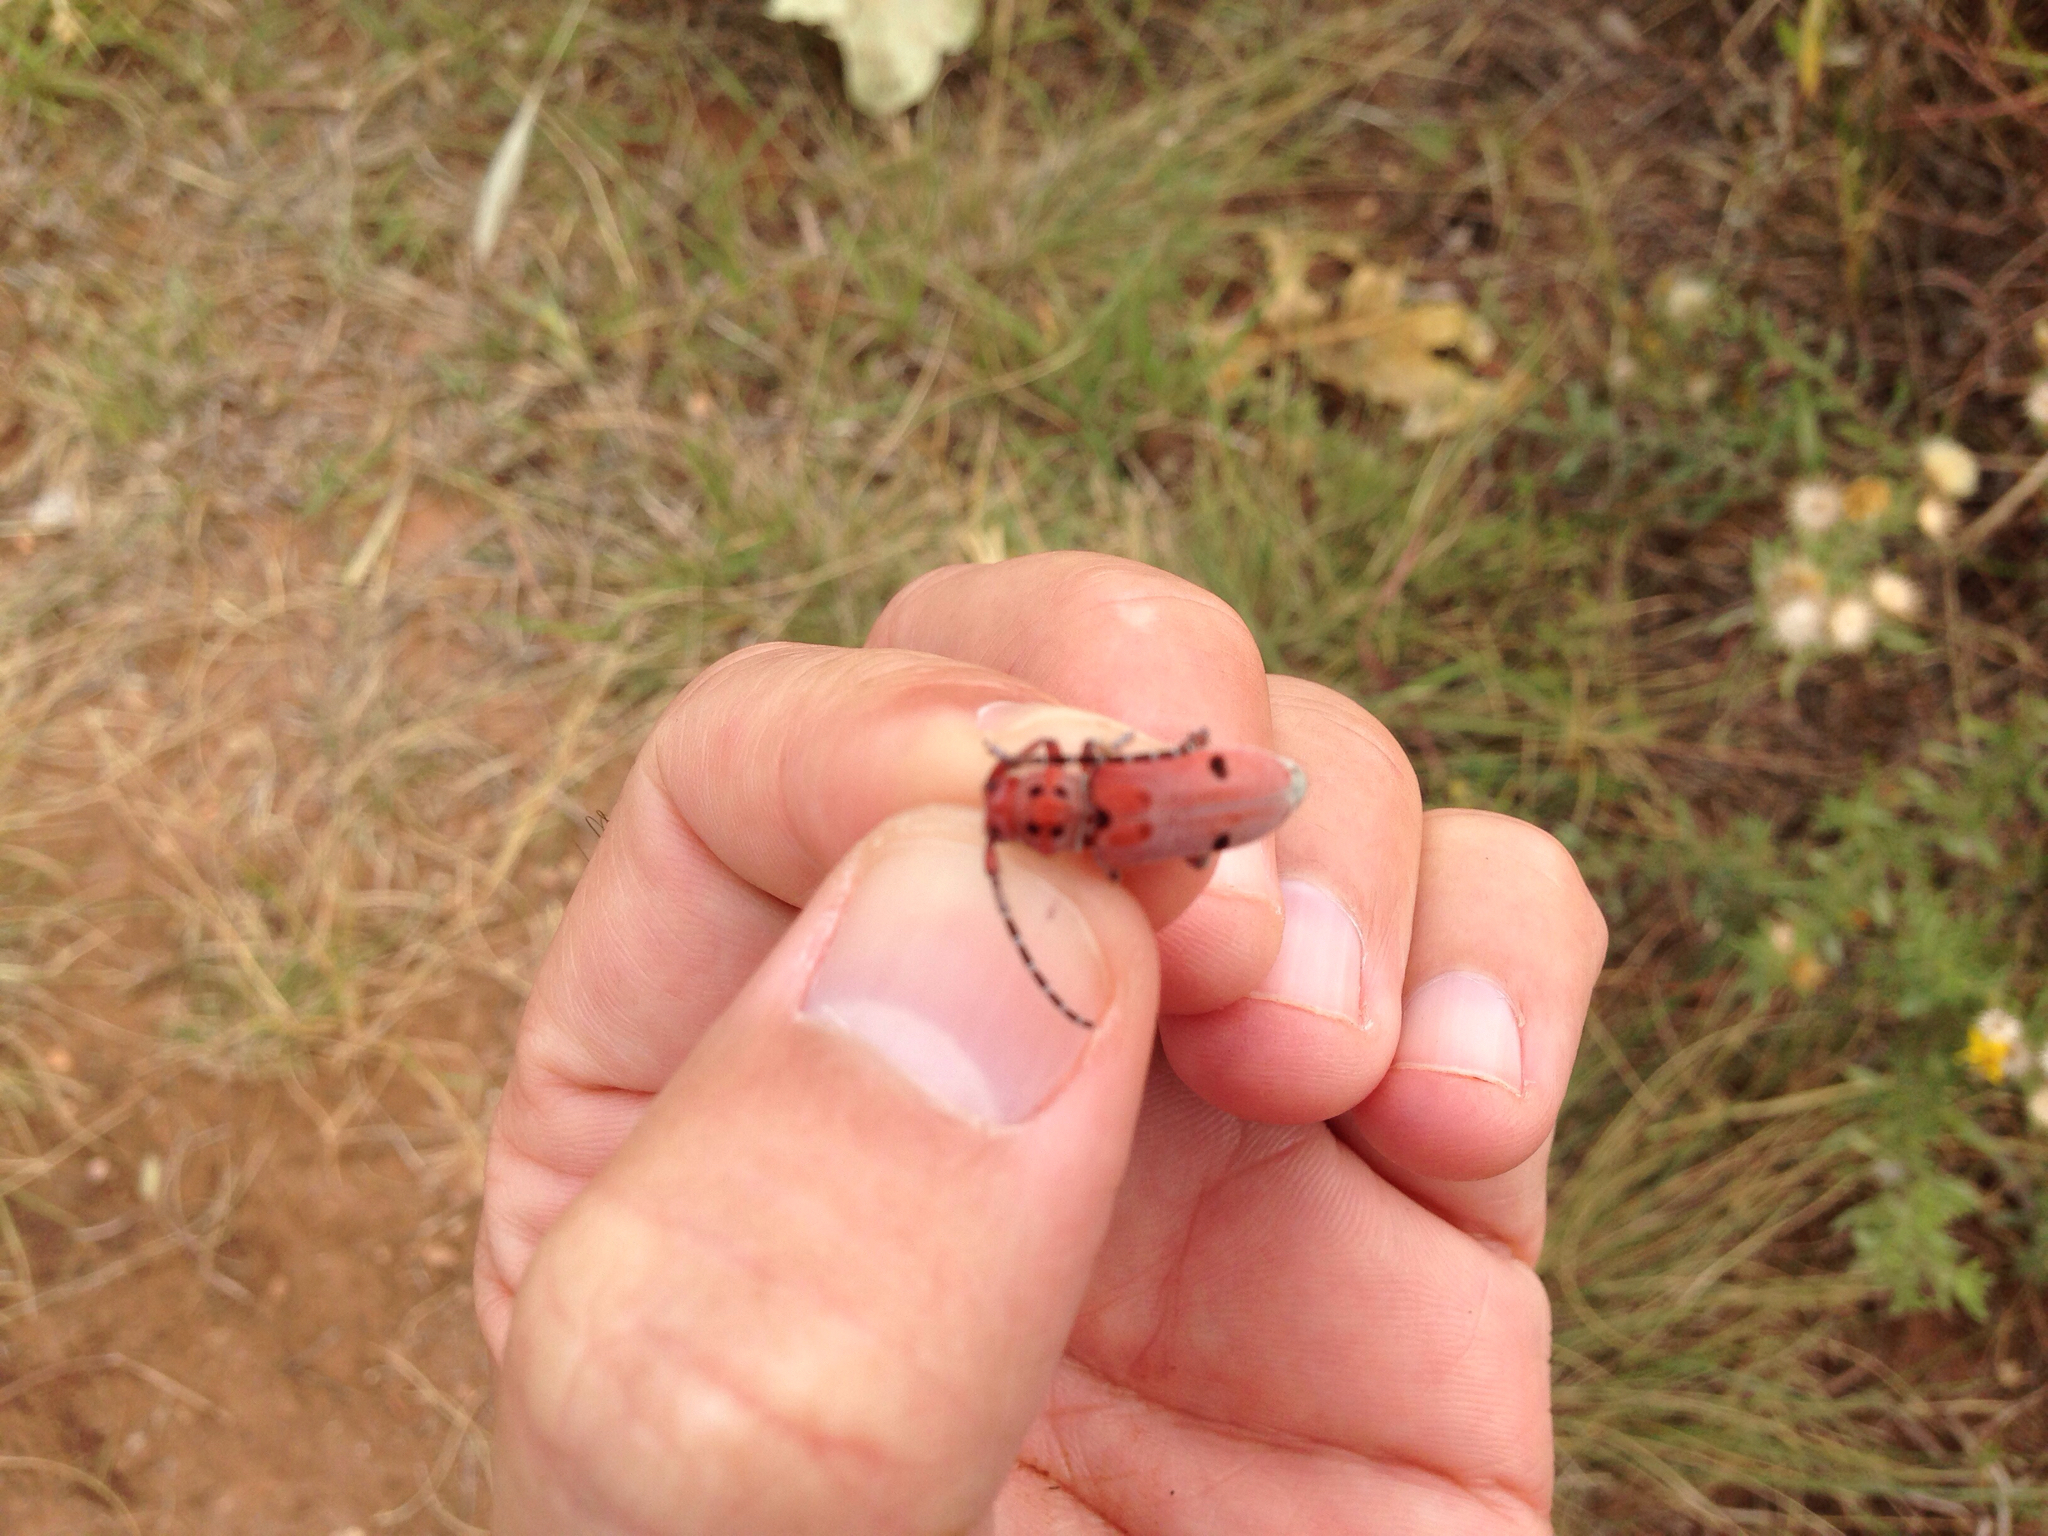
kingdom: Animalia
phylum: Arthropoda
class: Insecta
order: Coleoptera
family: Cerambycidae
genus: Tetraopes
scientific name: Tetraopes femoratus
